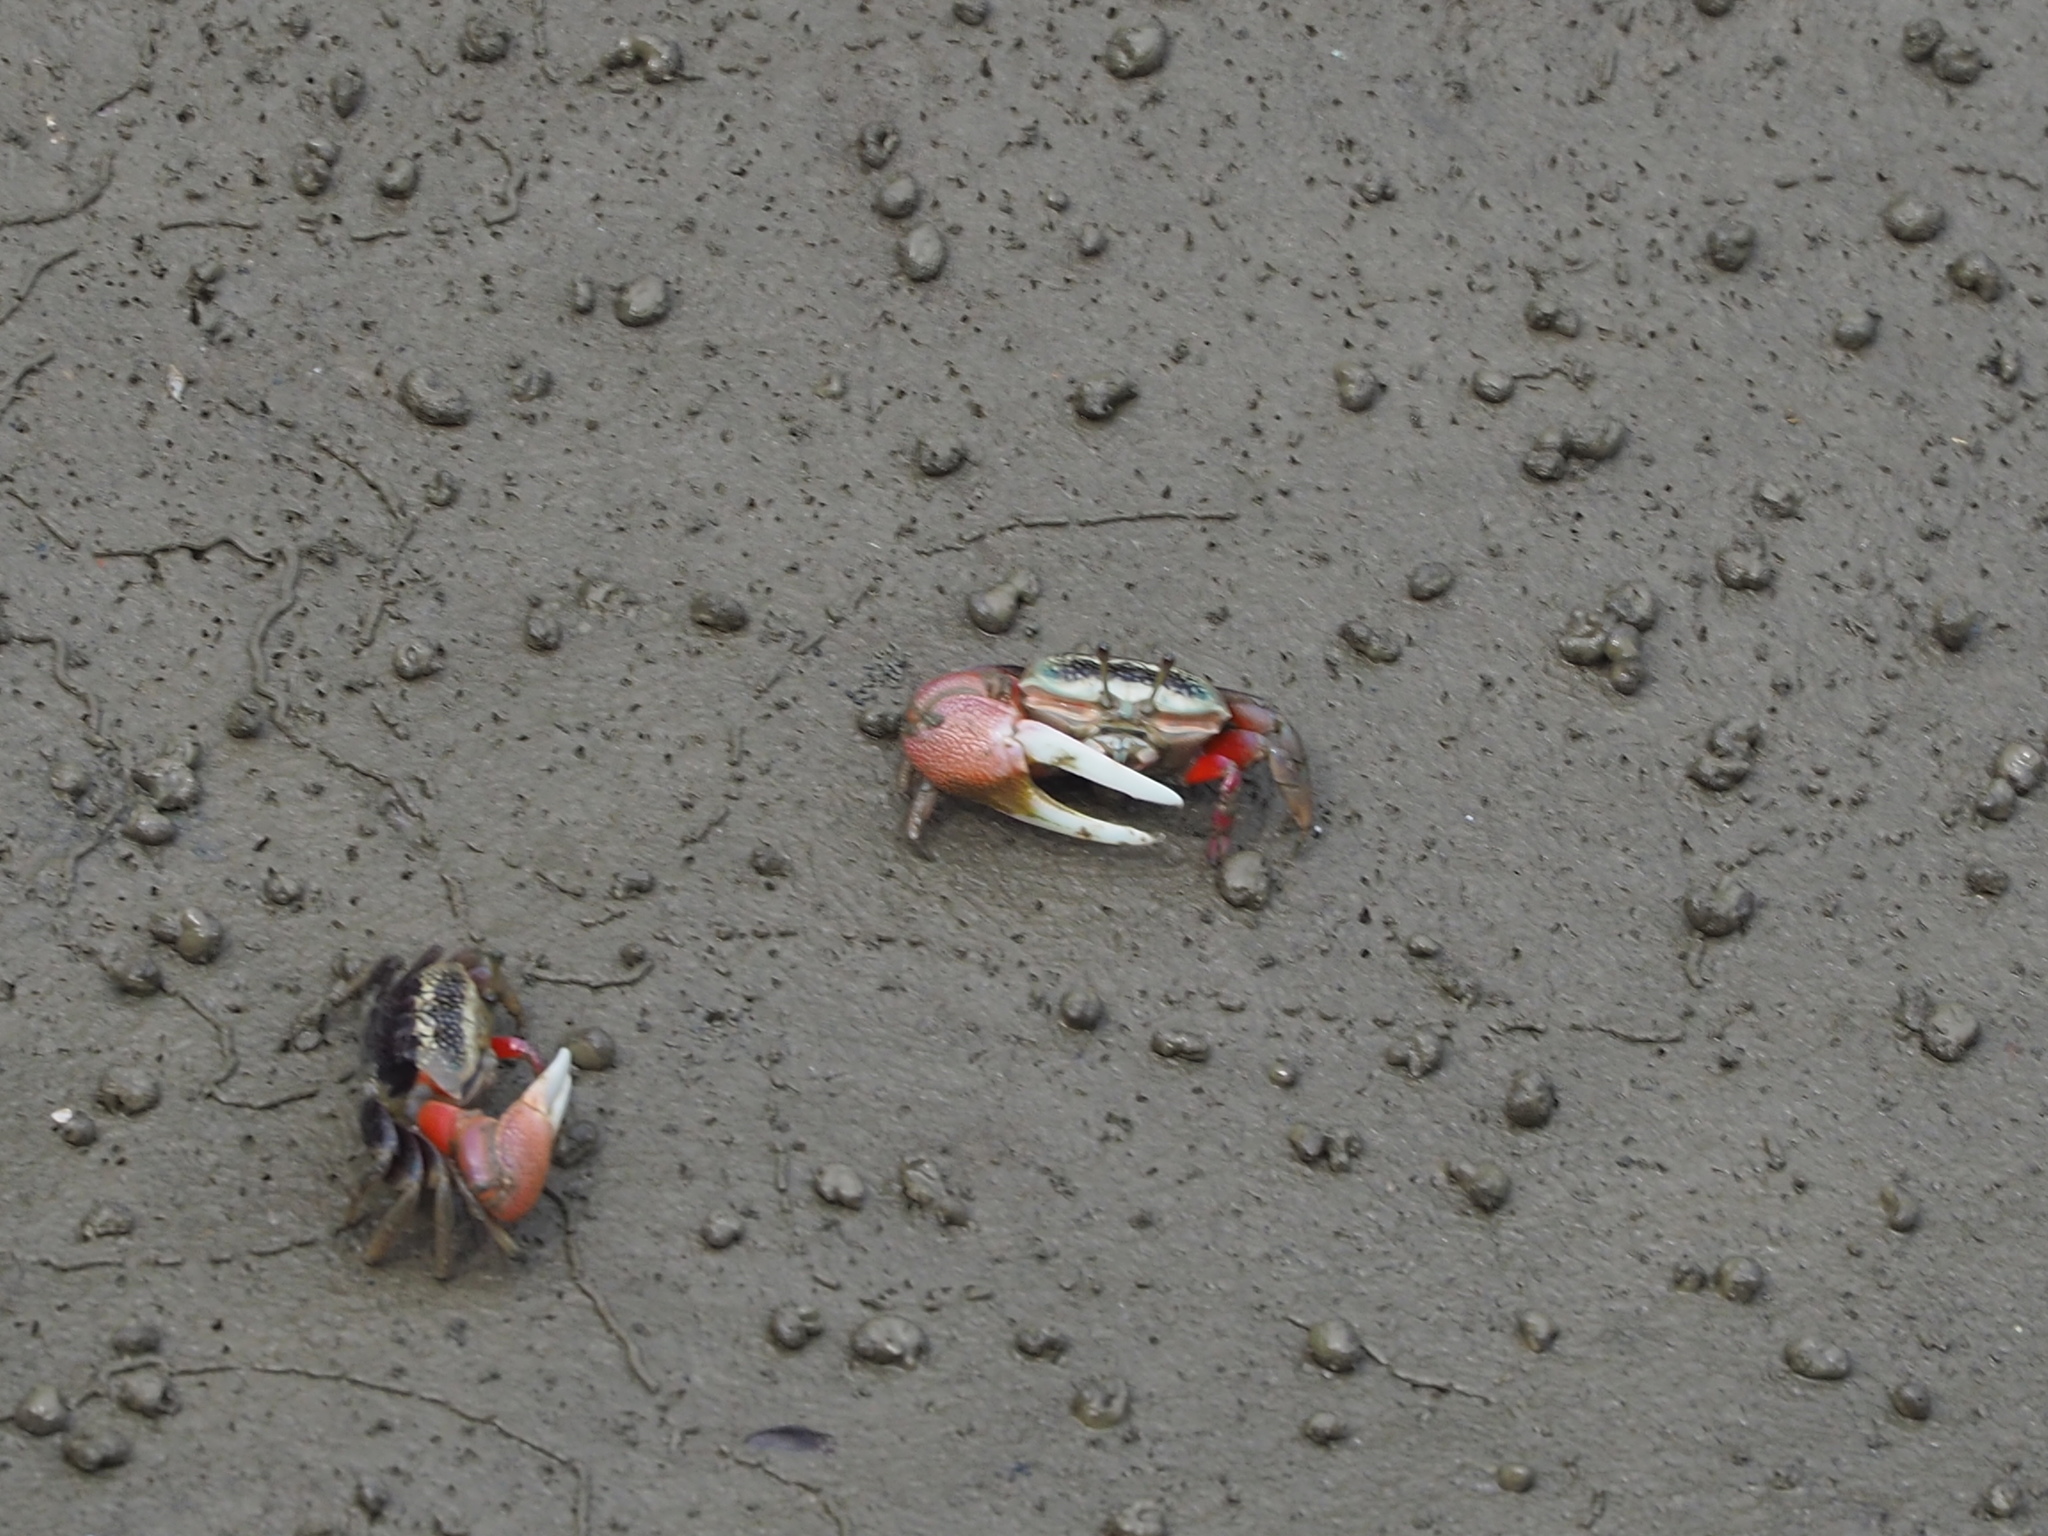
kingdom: Animalia
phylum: Arthropoda
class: Malacostraca
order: Decapoda
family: Ocypodidae
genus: Tubuca
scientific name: Tubuca arcuata
